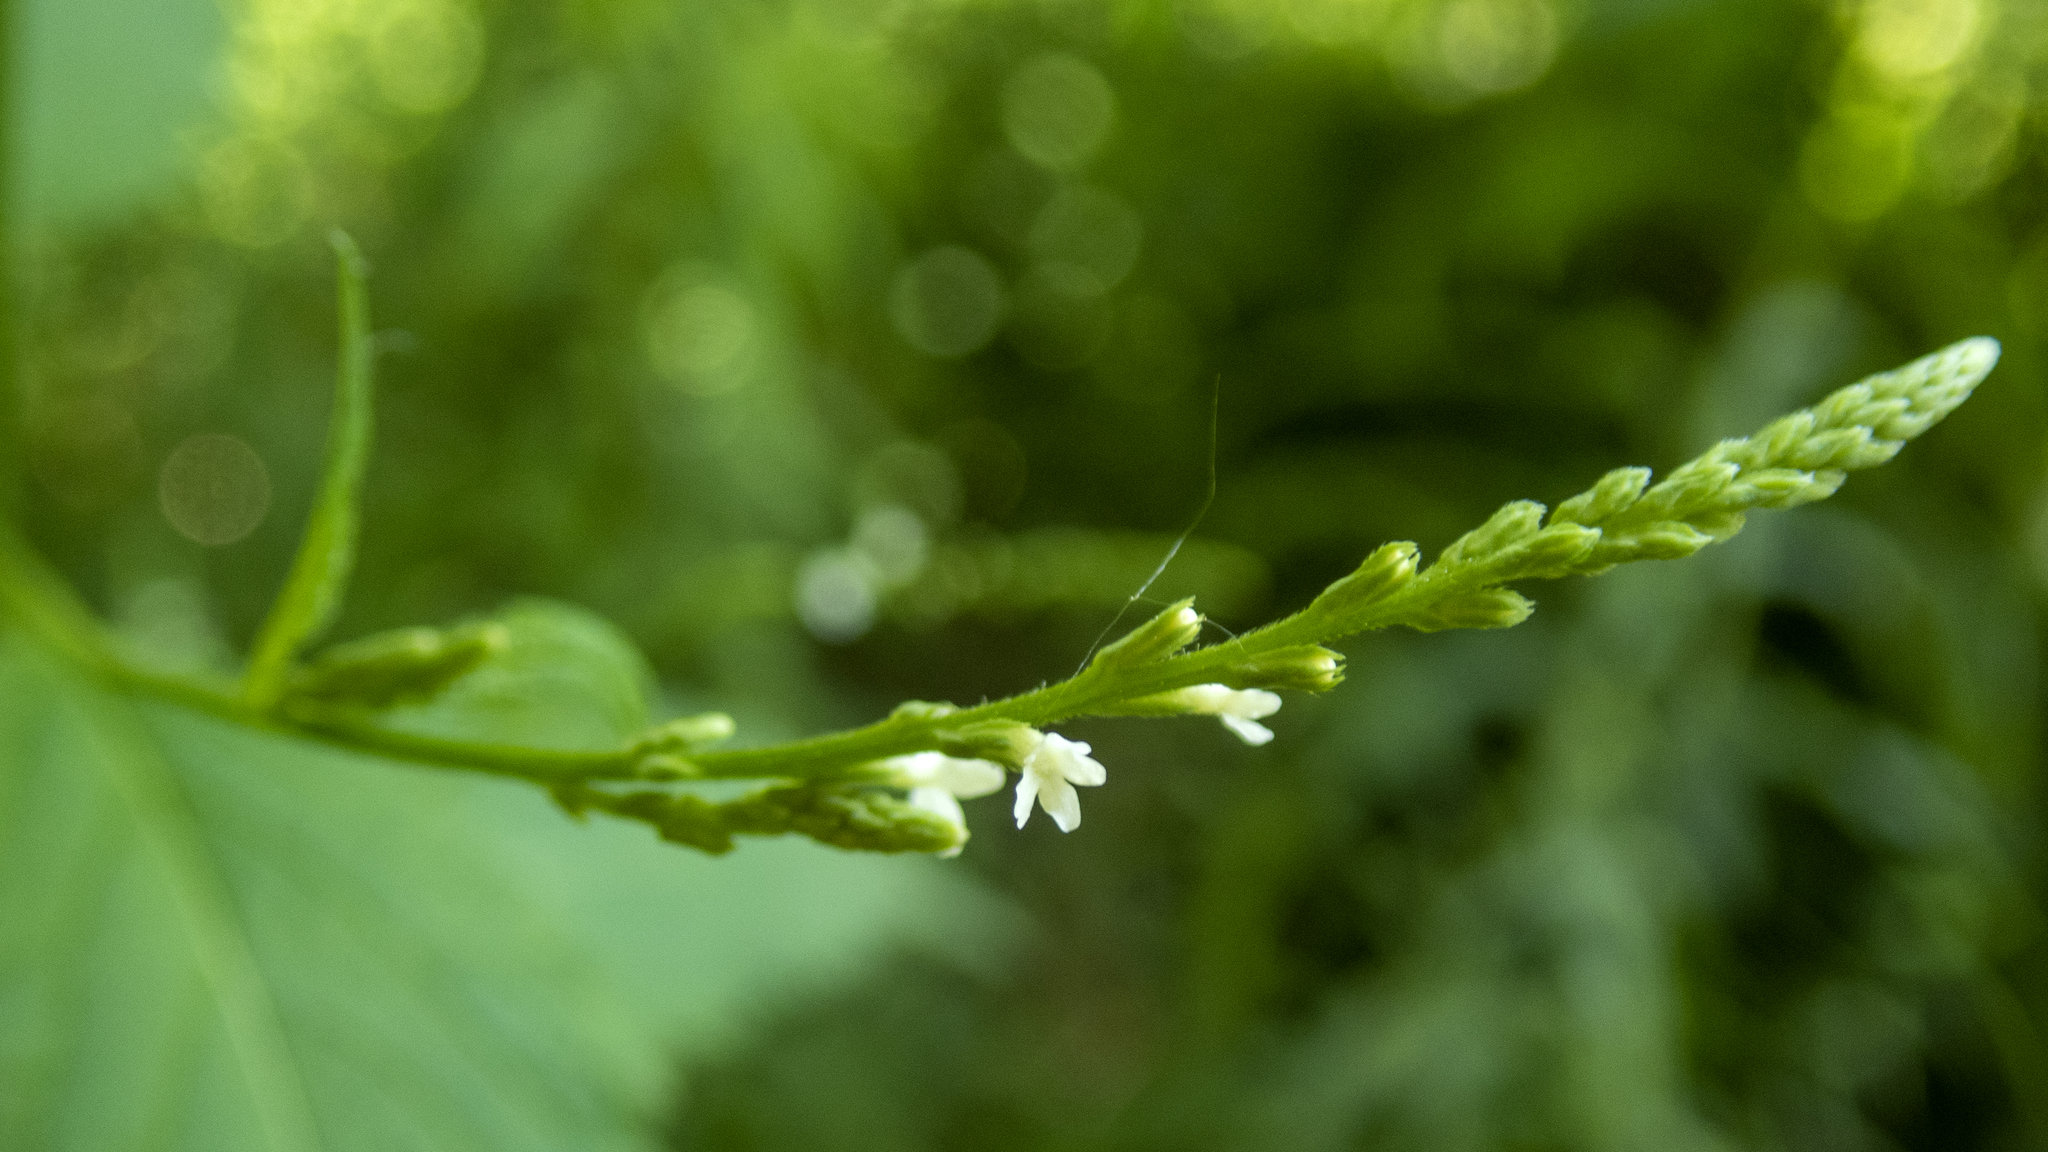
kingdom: Plantae
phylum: Tracheophyta
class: Magnoliopsida
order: Lamiales
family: Verbenaceae
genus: Verbena
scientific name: Verbena urticifolia
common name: Nettle-leaved vervain
